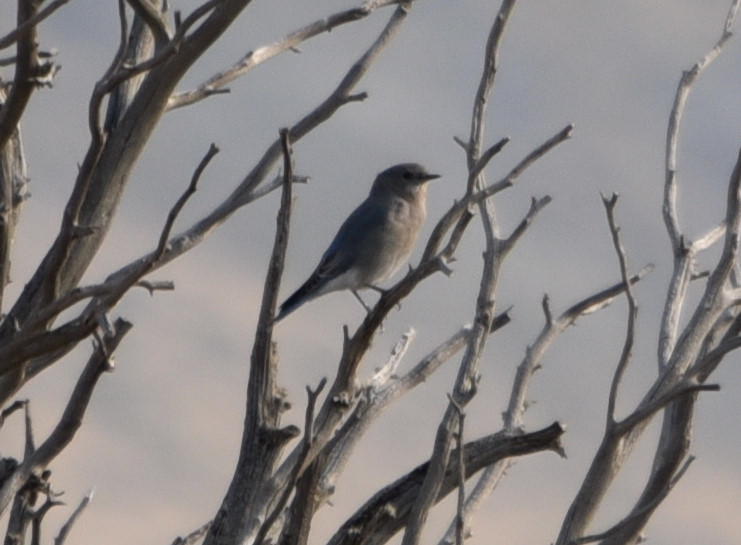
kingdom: Animalia
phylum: Chordata
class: Aves
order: Passeriformes
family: Turdidae
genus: Sialia
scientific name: Sialia currucoides
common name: Mountain bluebird
